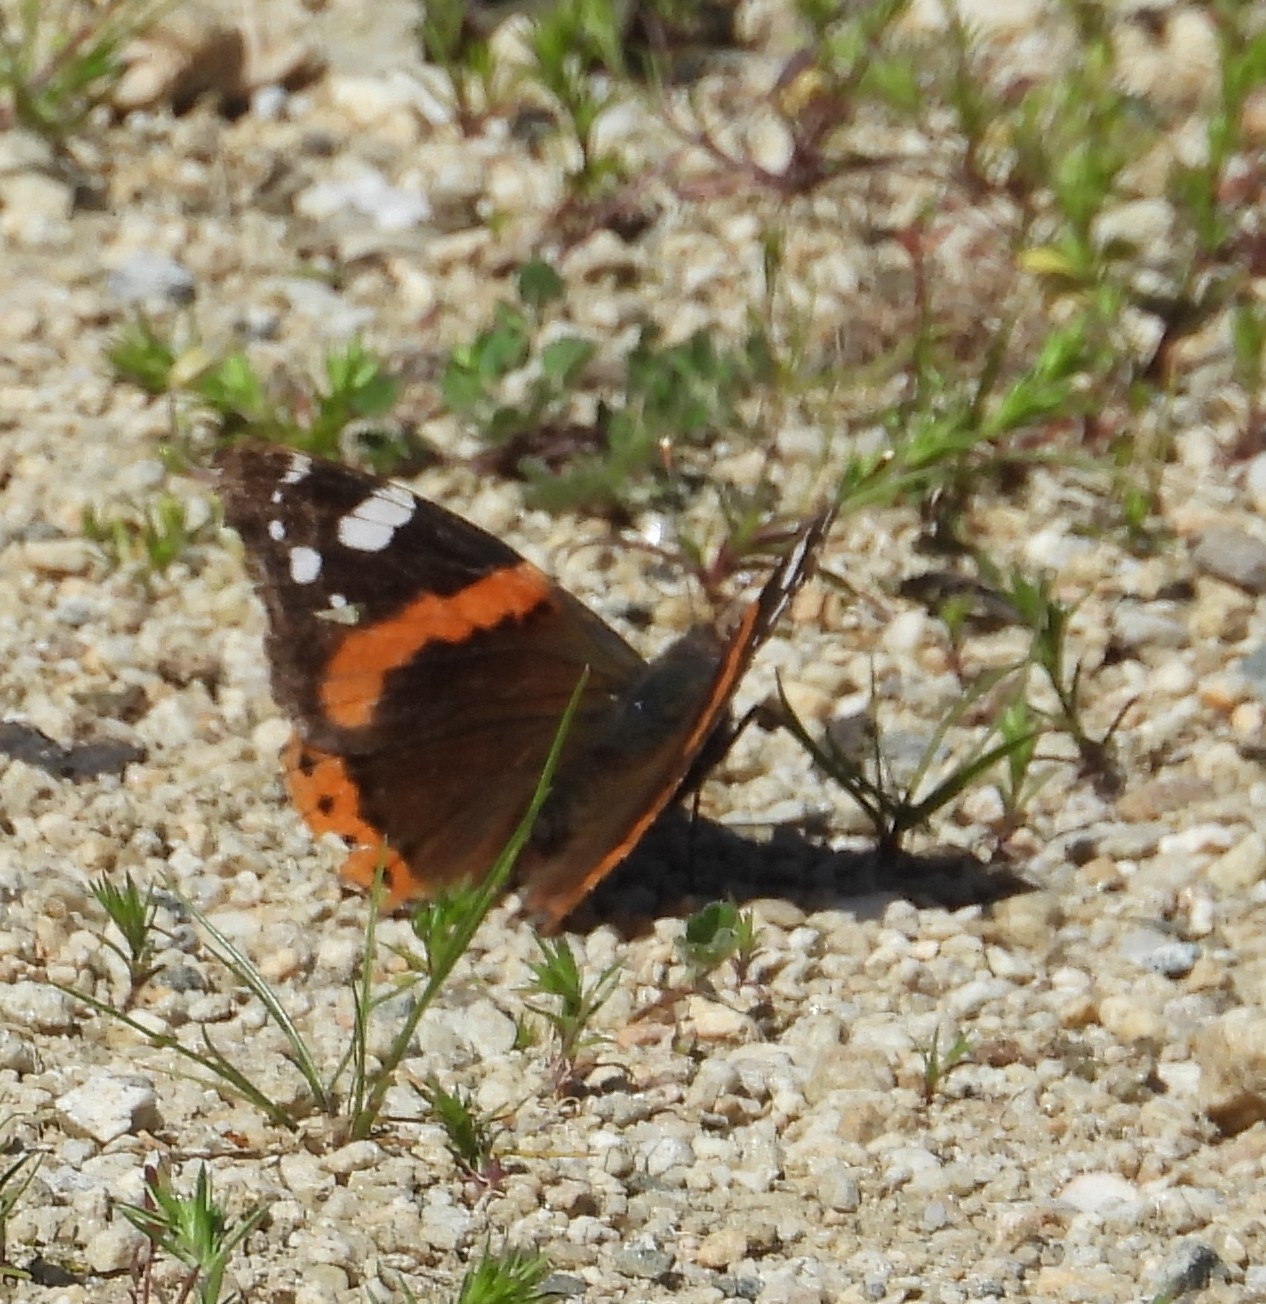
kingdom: Animalia
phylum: Arthropoda
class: Insecta
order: Lepidoptera
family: Nymphalidae
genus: Vanessa
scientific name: Vanessa atalanta
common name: Red admiral
